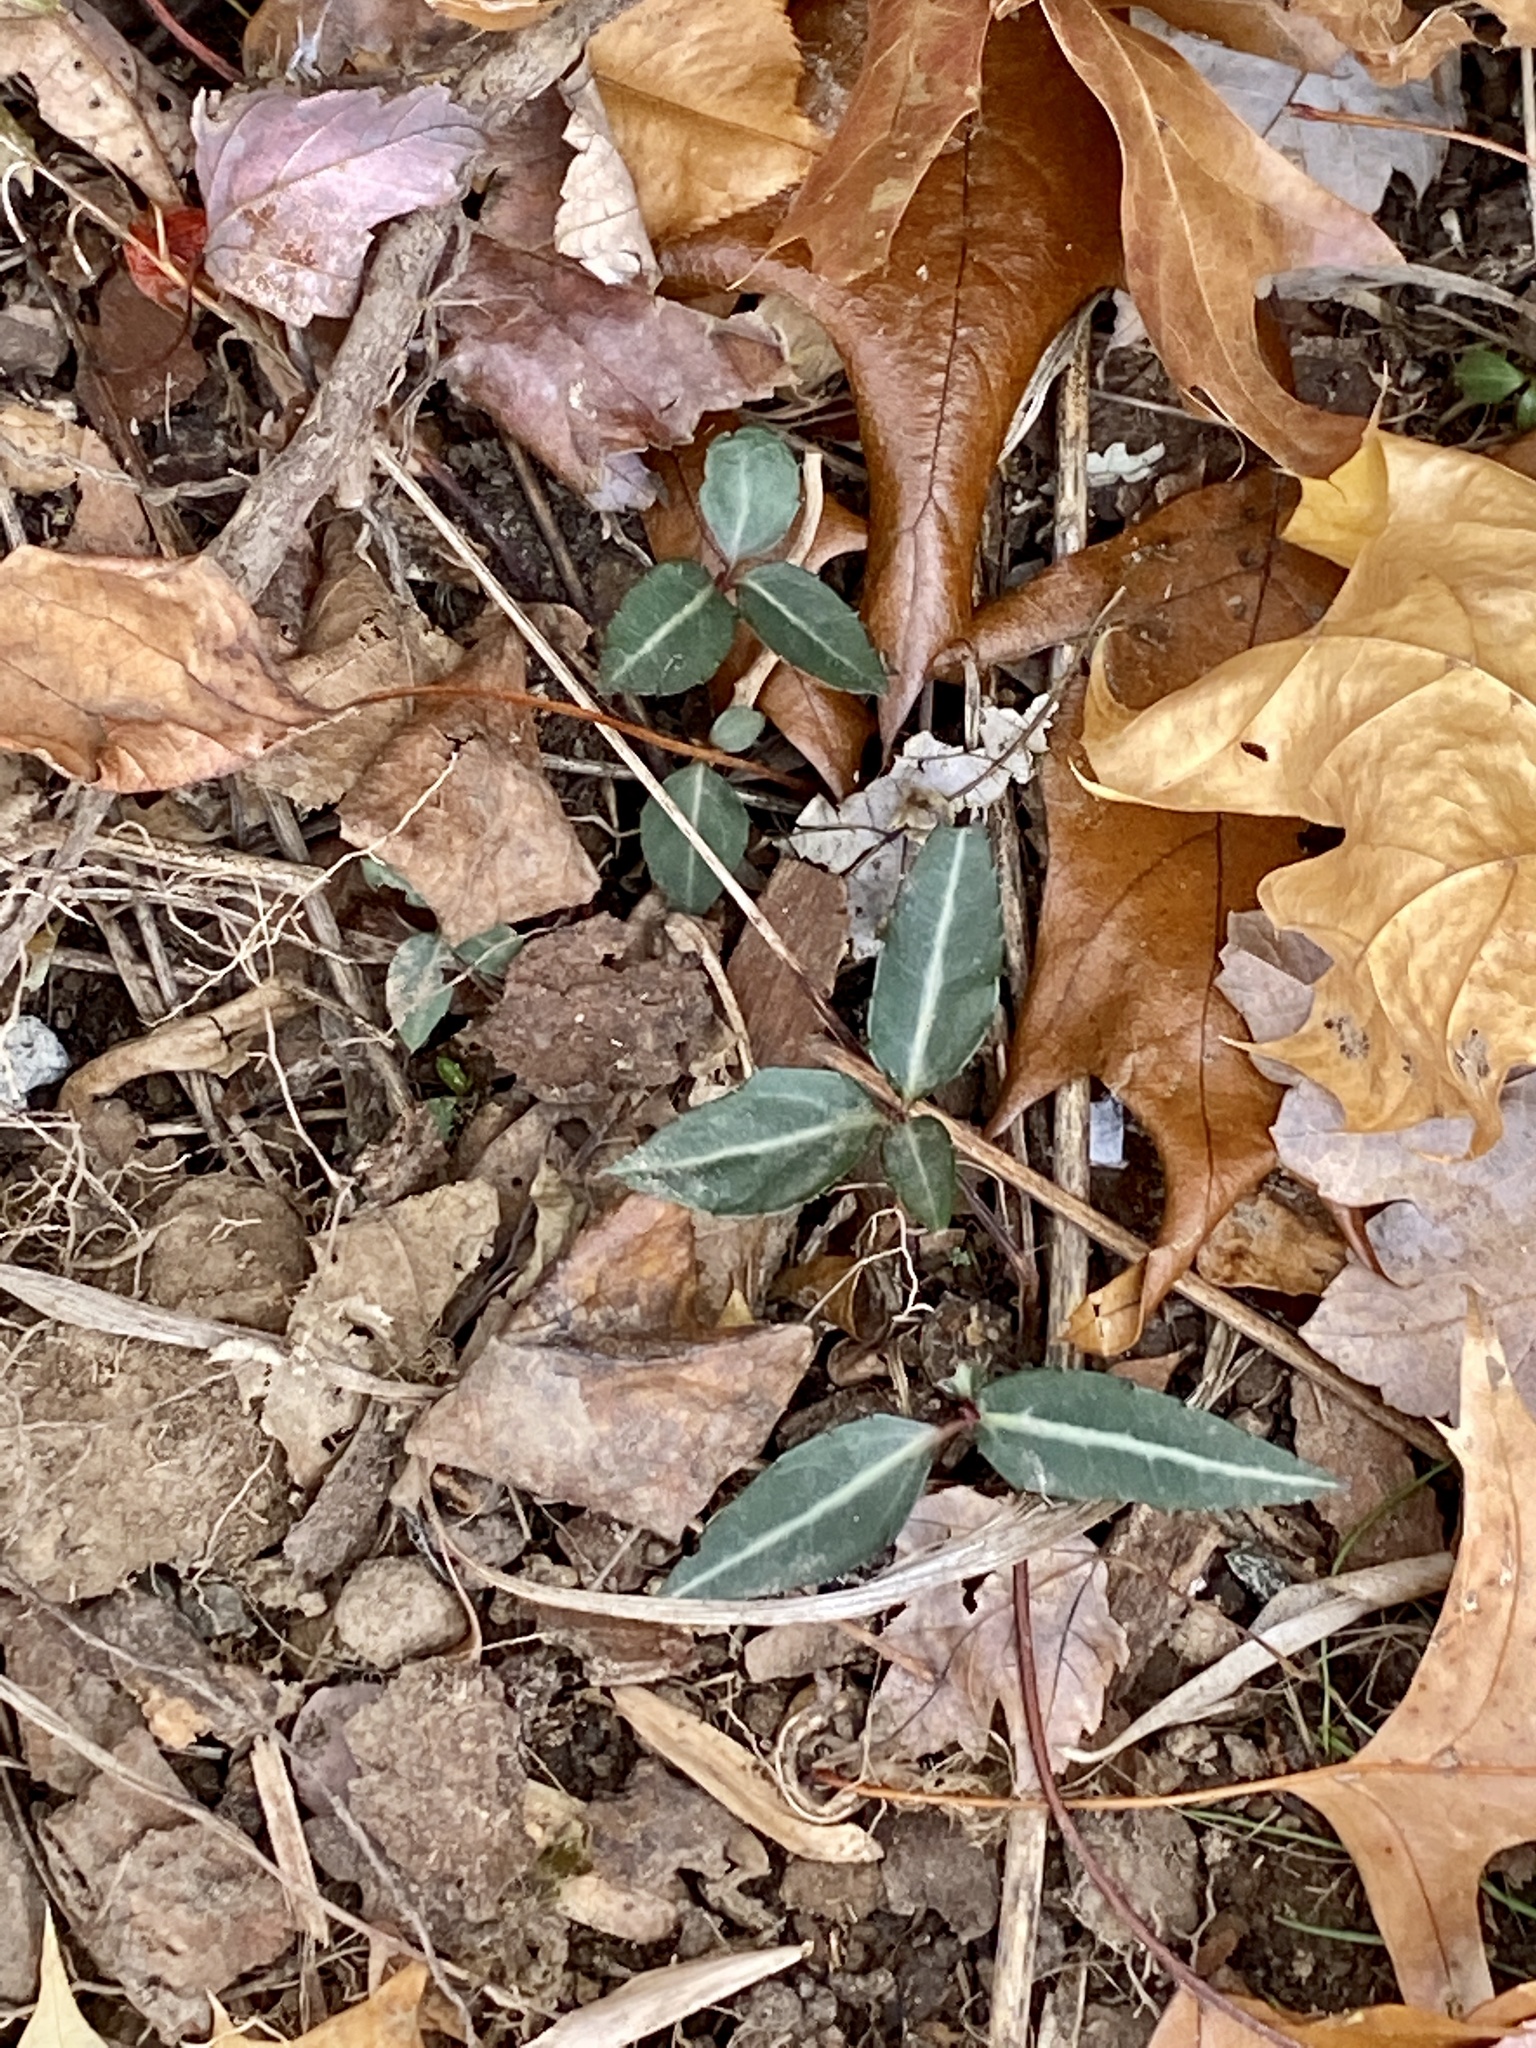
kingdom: Plantae
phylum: Tracheophyta
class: Magnoliopsida
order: Ericales
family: Ericaceae
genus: Chimaphila
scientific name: Chimaphila maculata
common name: Spotted pipsissewa
